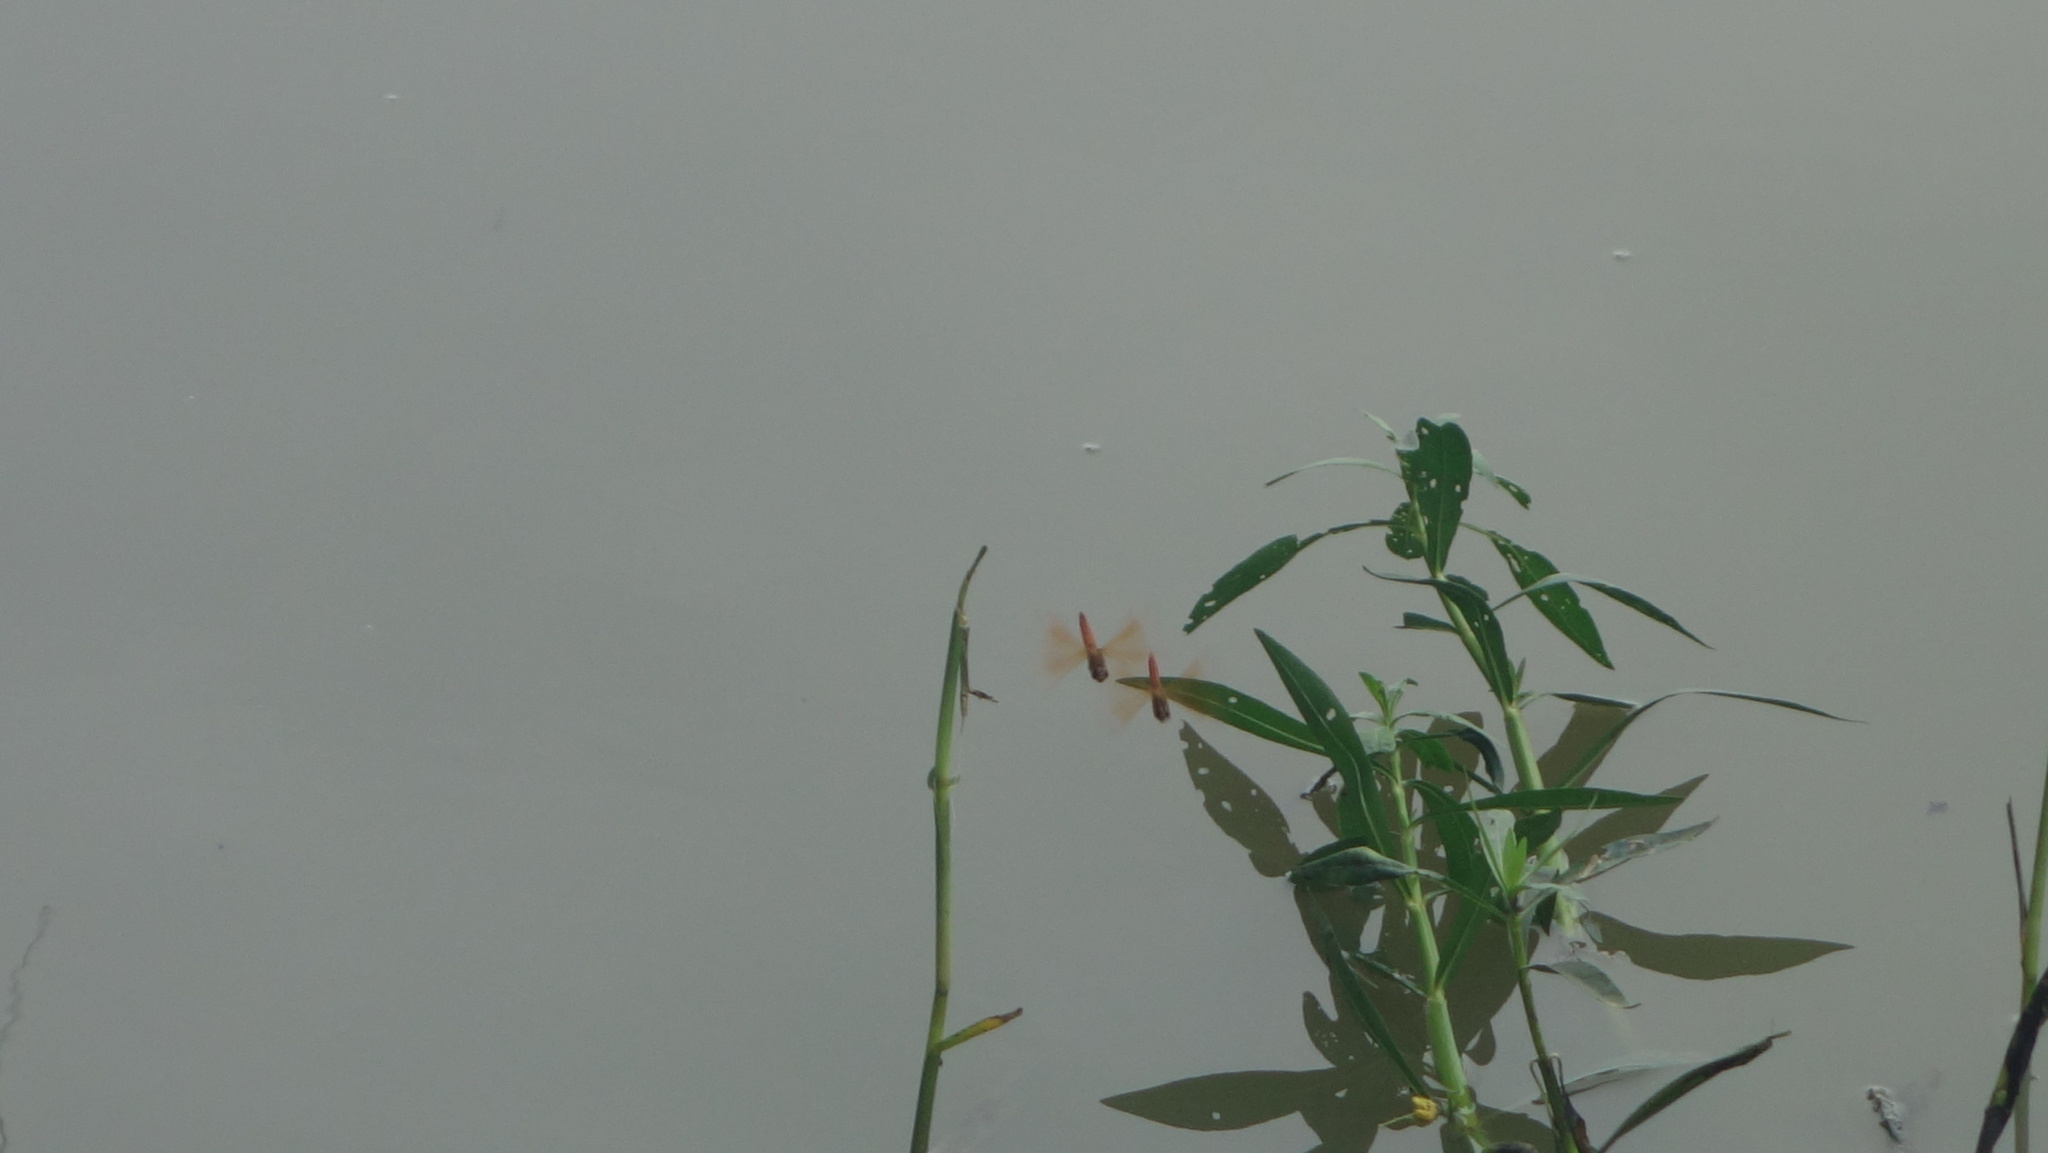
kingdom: Animalia
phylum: Arthropoda
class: Insecta
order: Odonata
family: Libellulidae
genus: Brachythemis
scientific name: Brachythemis contaminata
